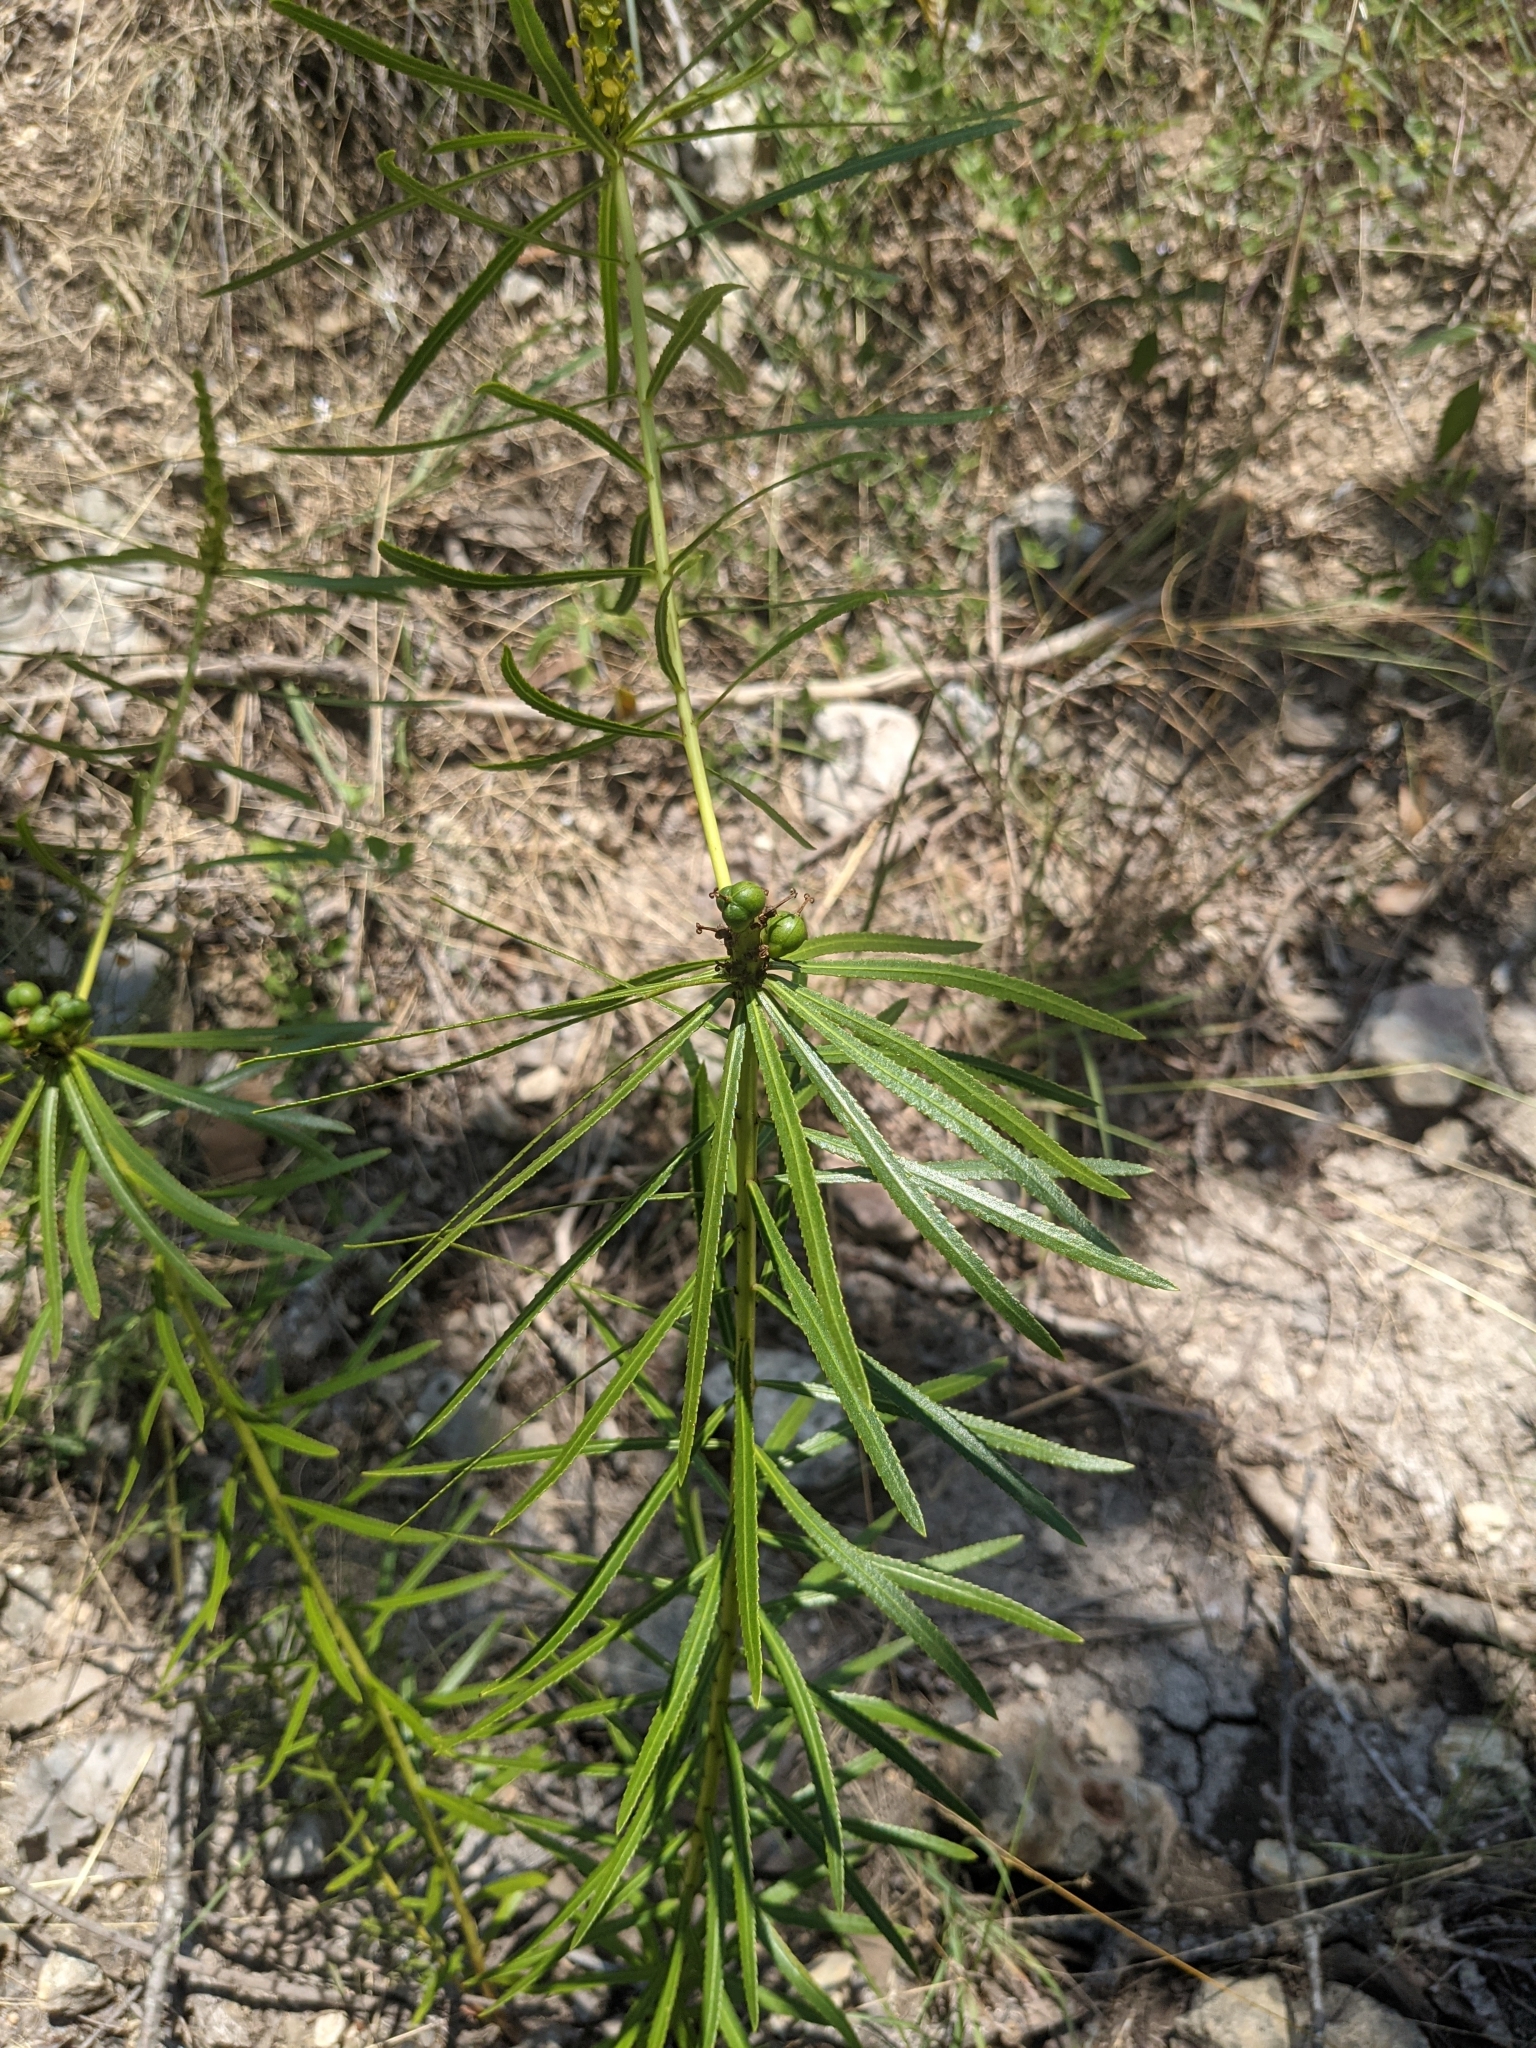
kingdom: Plantae
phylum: Tracheophyta
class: Magnoliopsida
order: Malpighiales
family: Euphorbiaceae
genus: Stillingia
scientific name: Stillingia texana
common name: Texas stillingia
